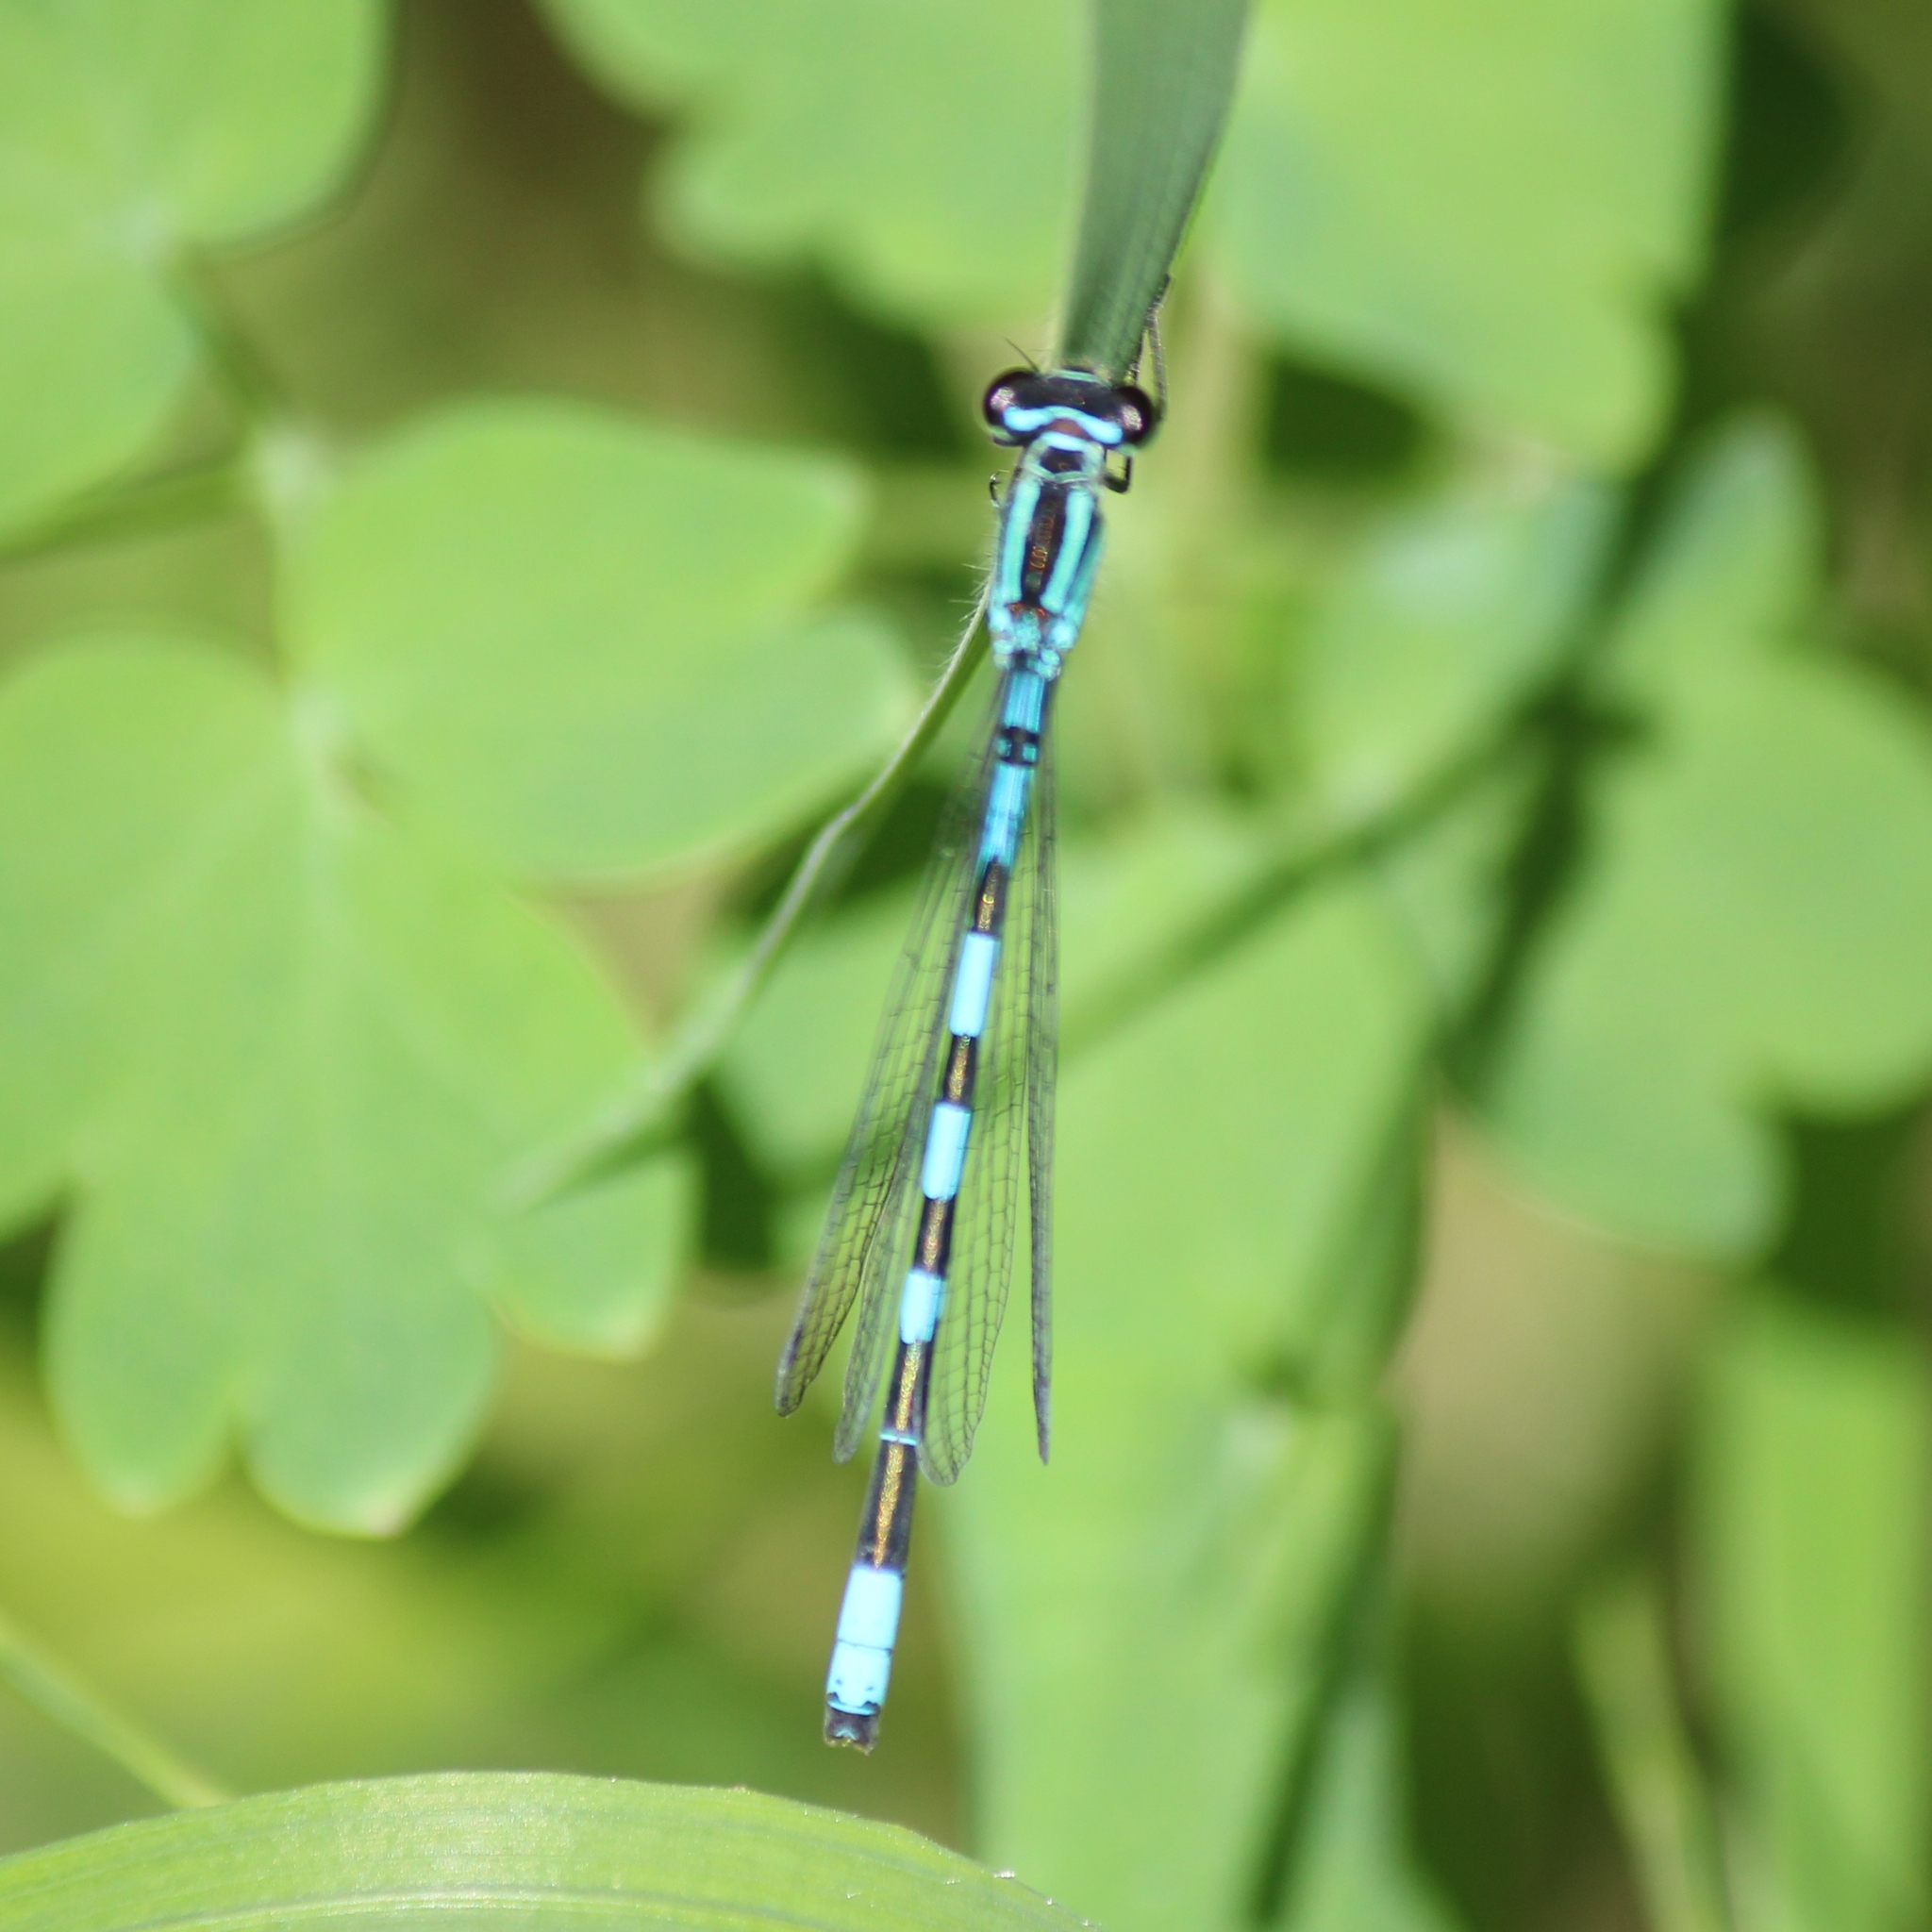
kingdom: Animalia
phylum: Arthropoda
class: Insecta
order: Odonata
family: Coenagrionidae
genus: Coenagrion
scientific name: Coenagrion hastulatum
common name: Spearhead bluet
